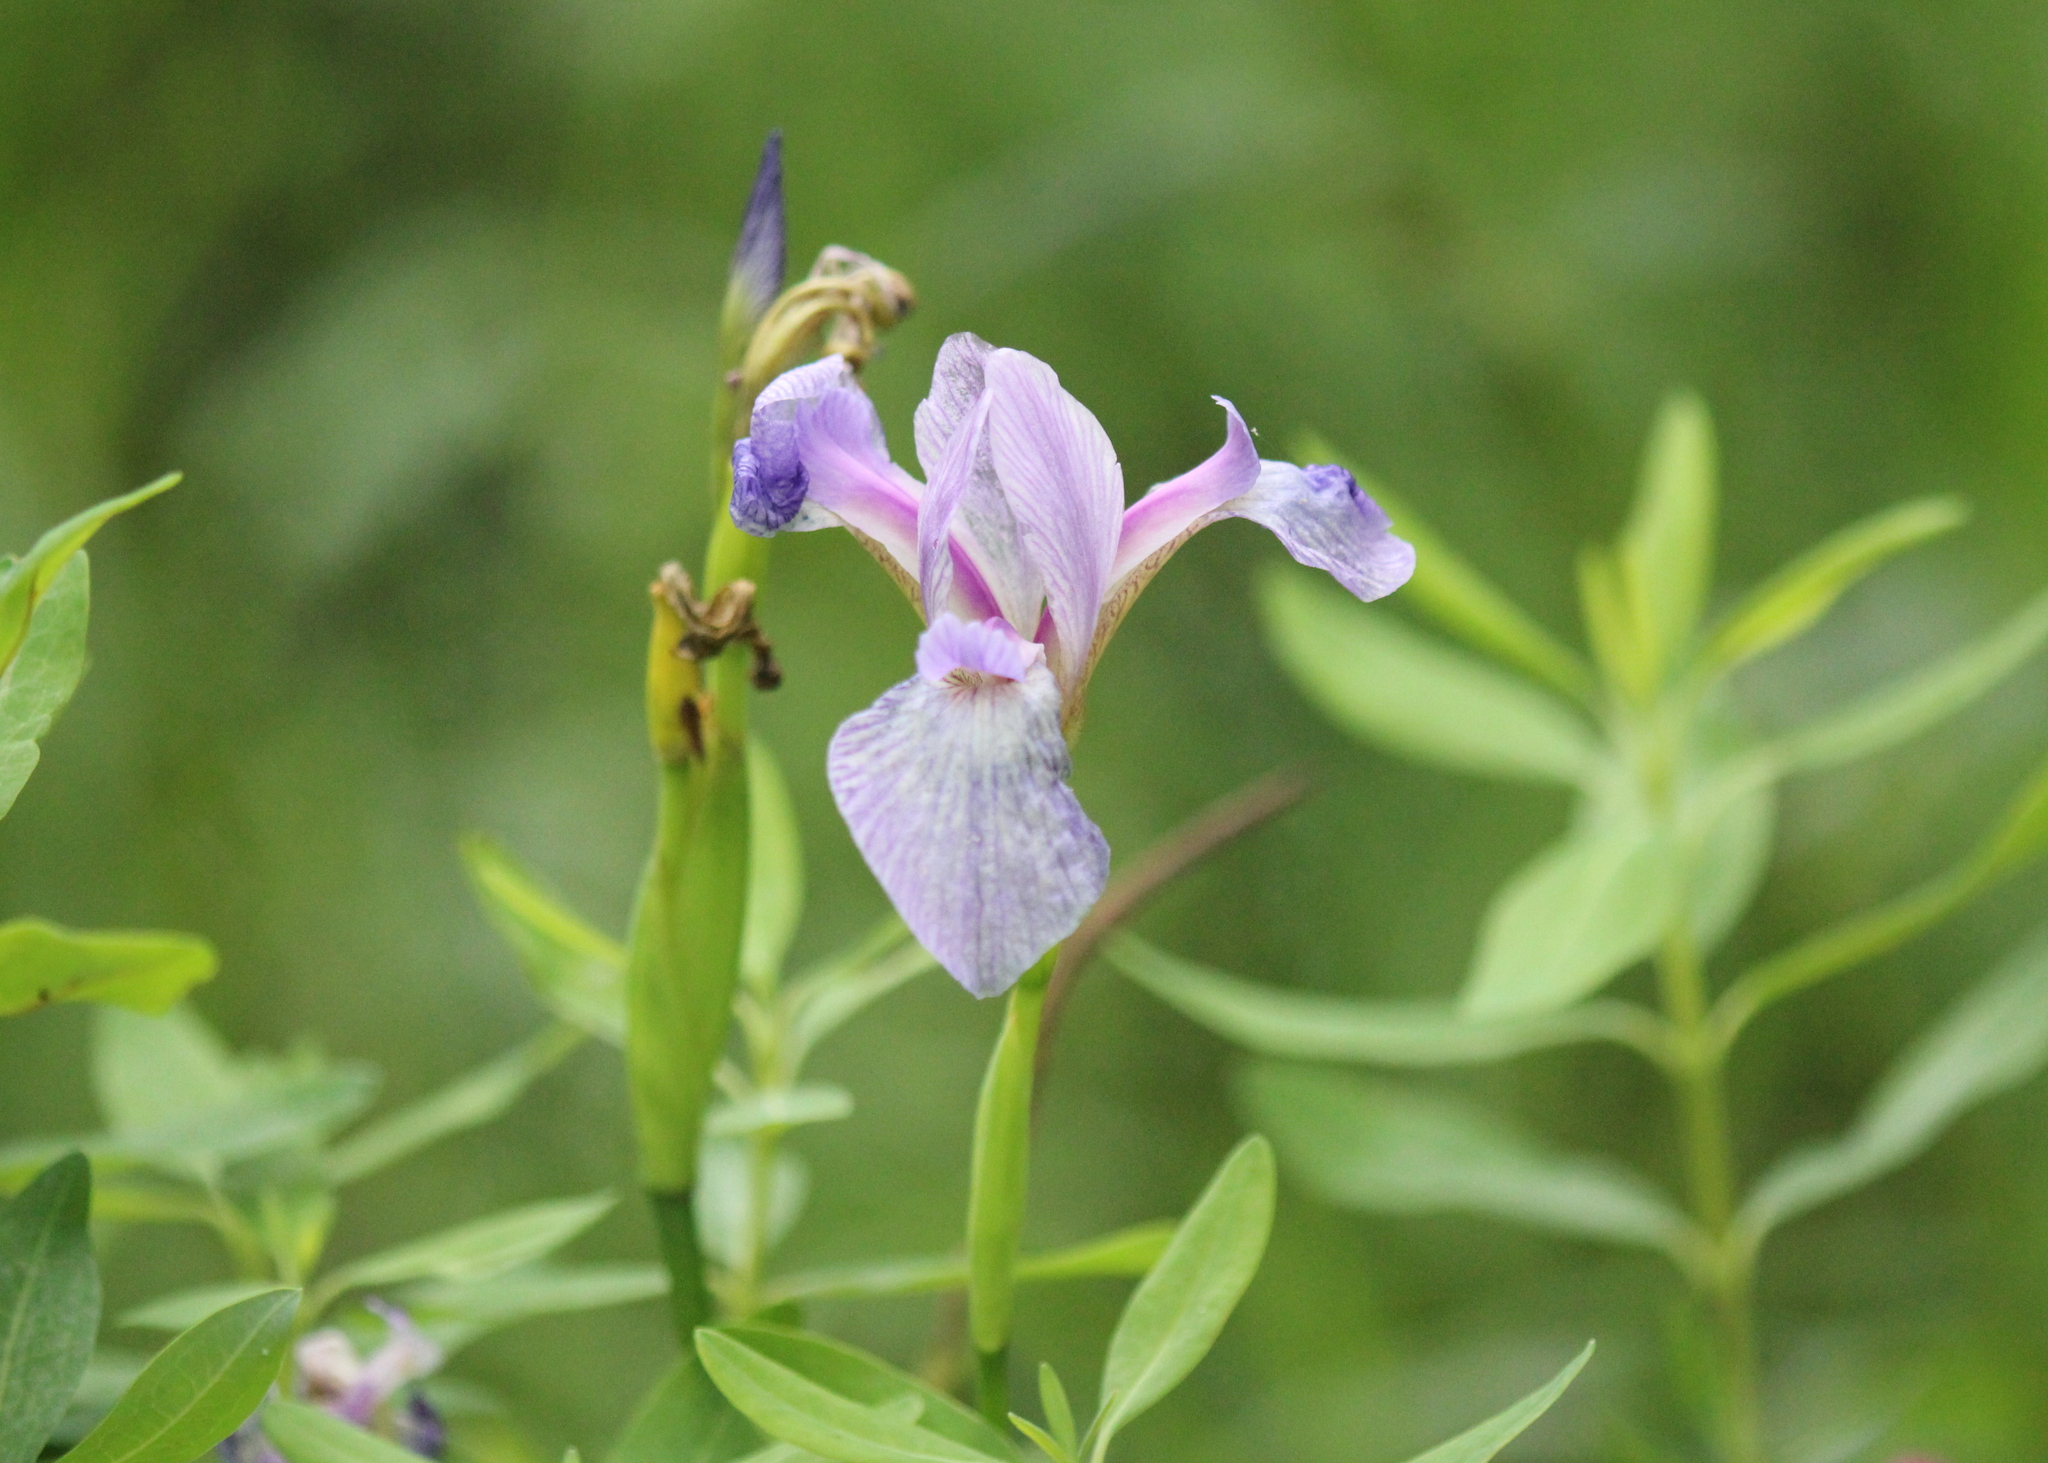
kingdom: Plantae
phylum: Tracheophyta
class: Liliopsida
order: Asparagales
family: Iridaceae
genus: Iris
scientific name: Iris versicolor
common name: Purple iris
